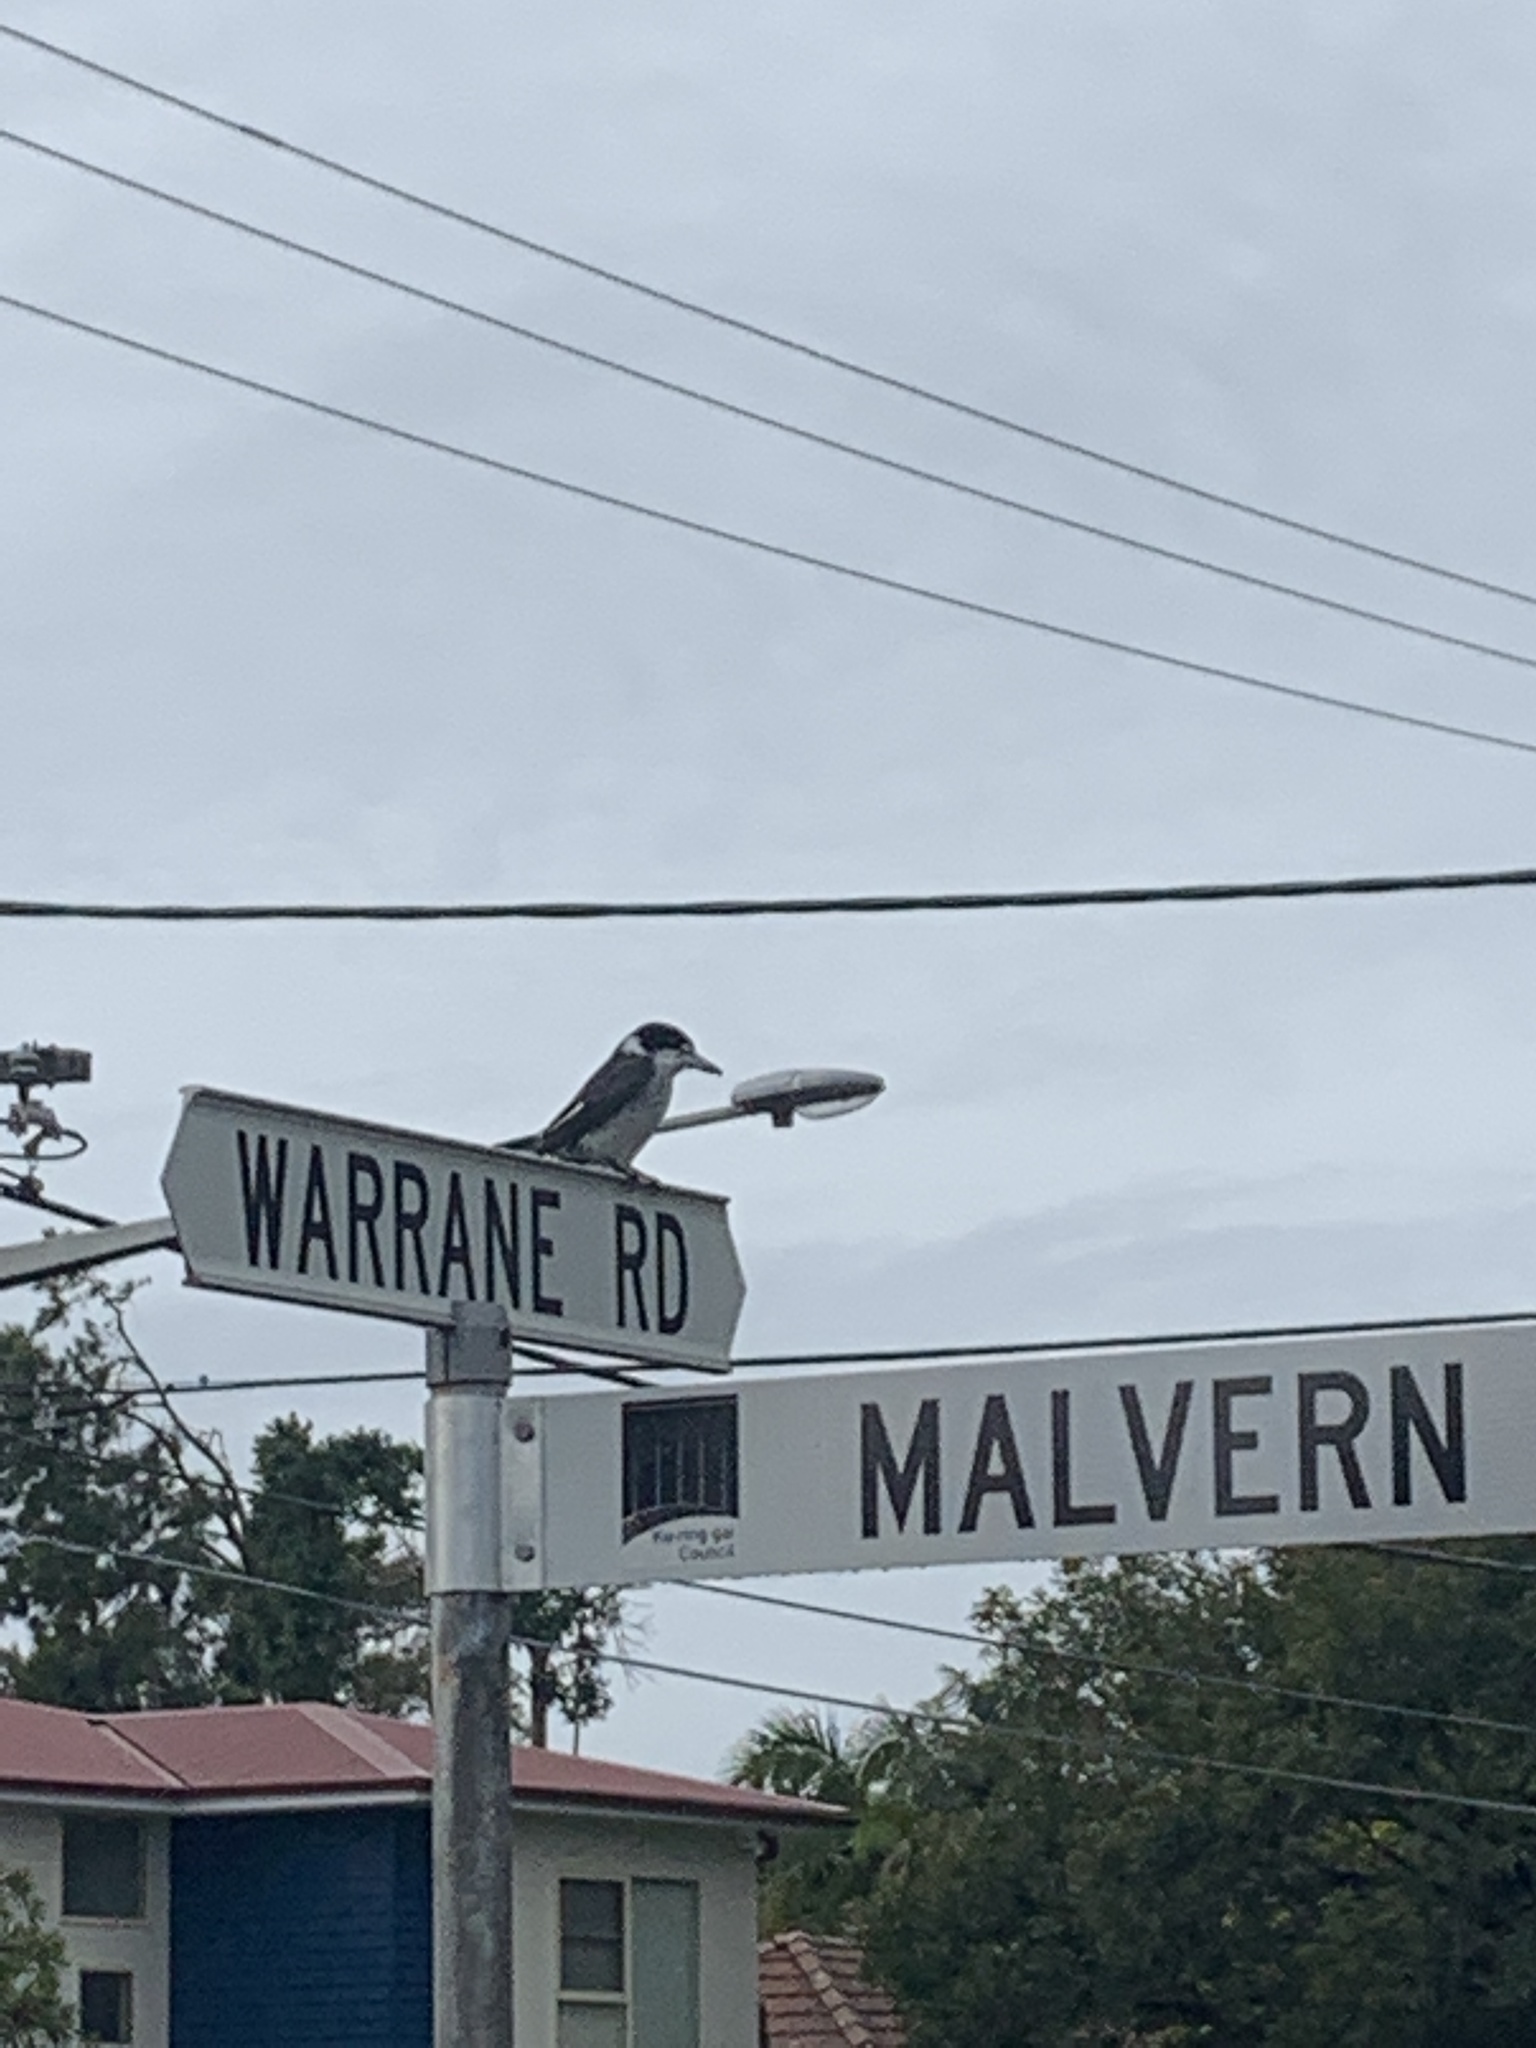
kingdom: Animalia
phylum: Chordata
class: Aves
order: Passeriformes
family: Cracticidae
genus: Cracticus
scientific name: Cracticus torquatus
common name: Grey butcherbird
